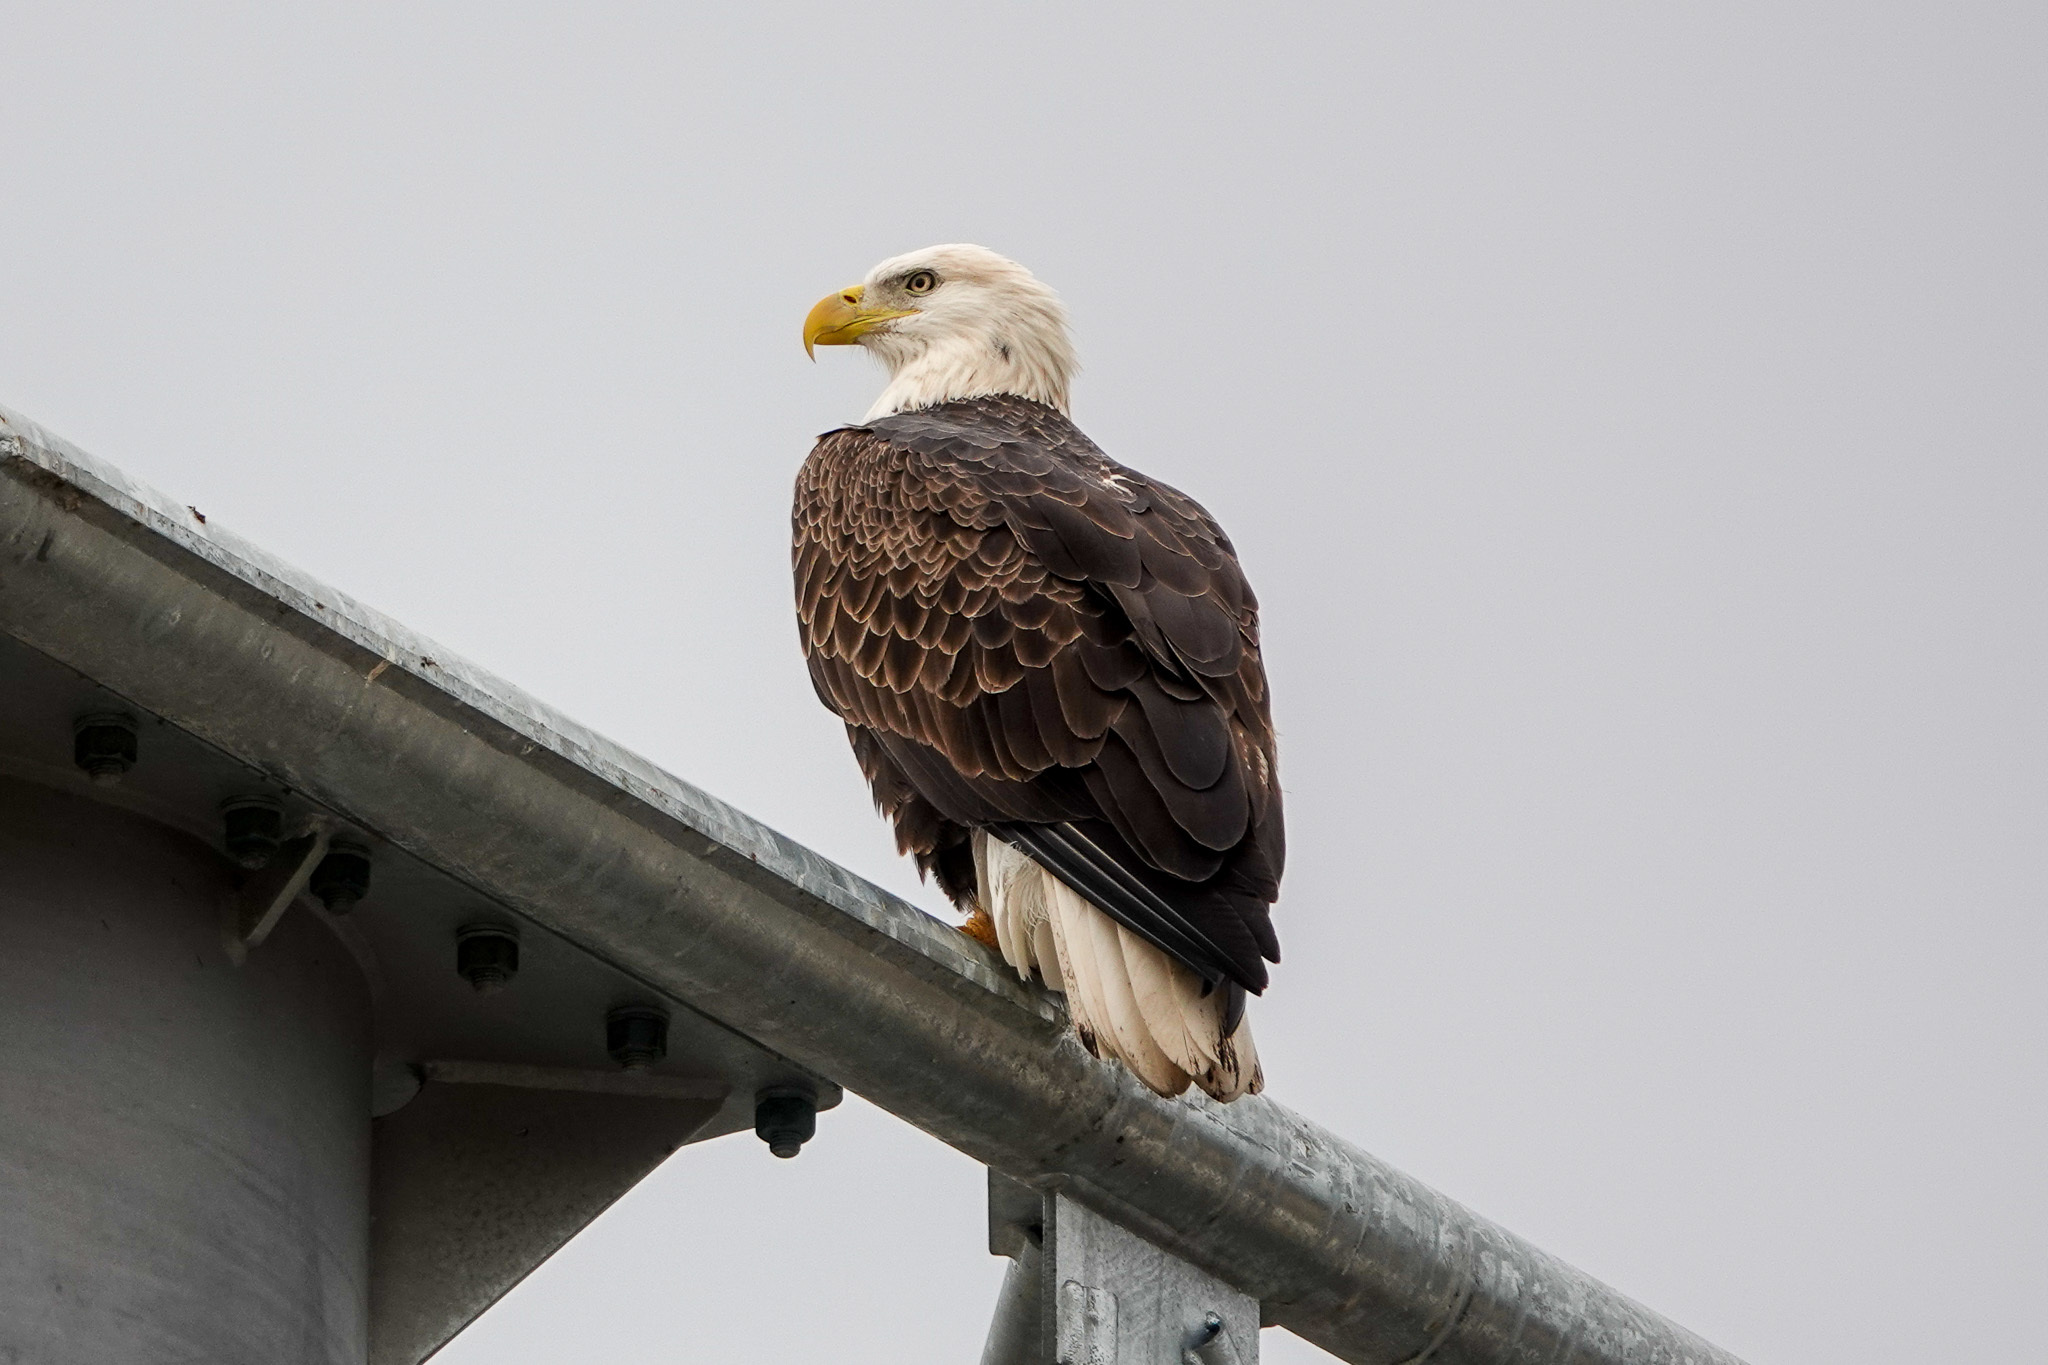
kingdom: Animalia
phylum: Chordata
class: Aves
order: Accipitriformes
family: Accipitridae
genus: Haliaeetus
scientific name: Haliaeetus leucocephalus
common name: Bald eagle
